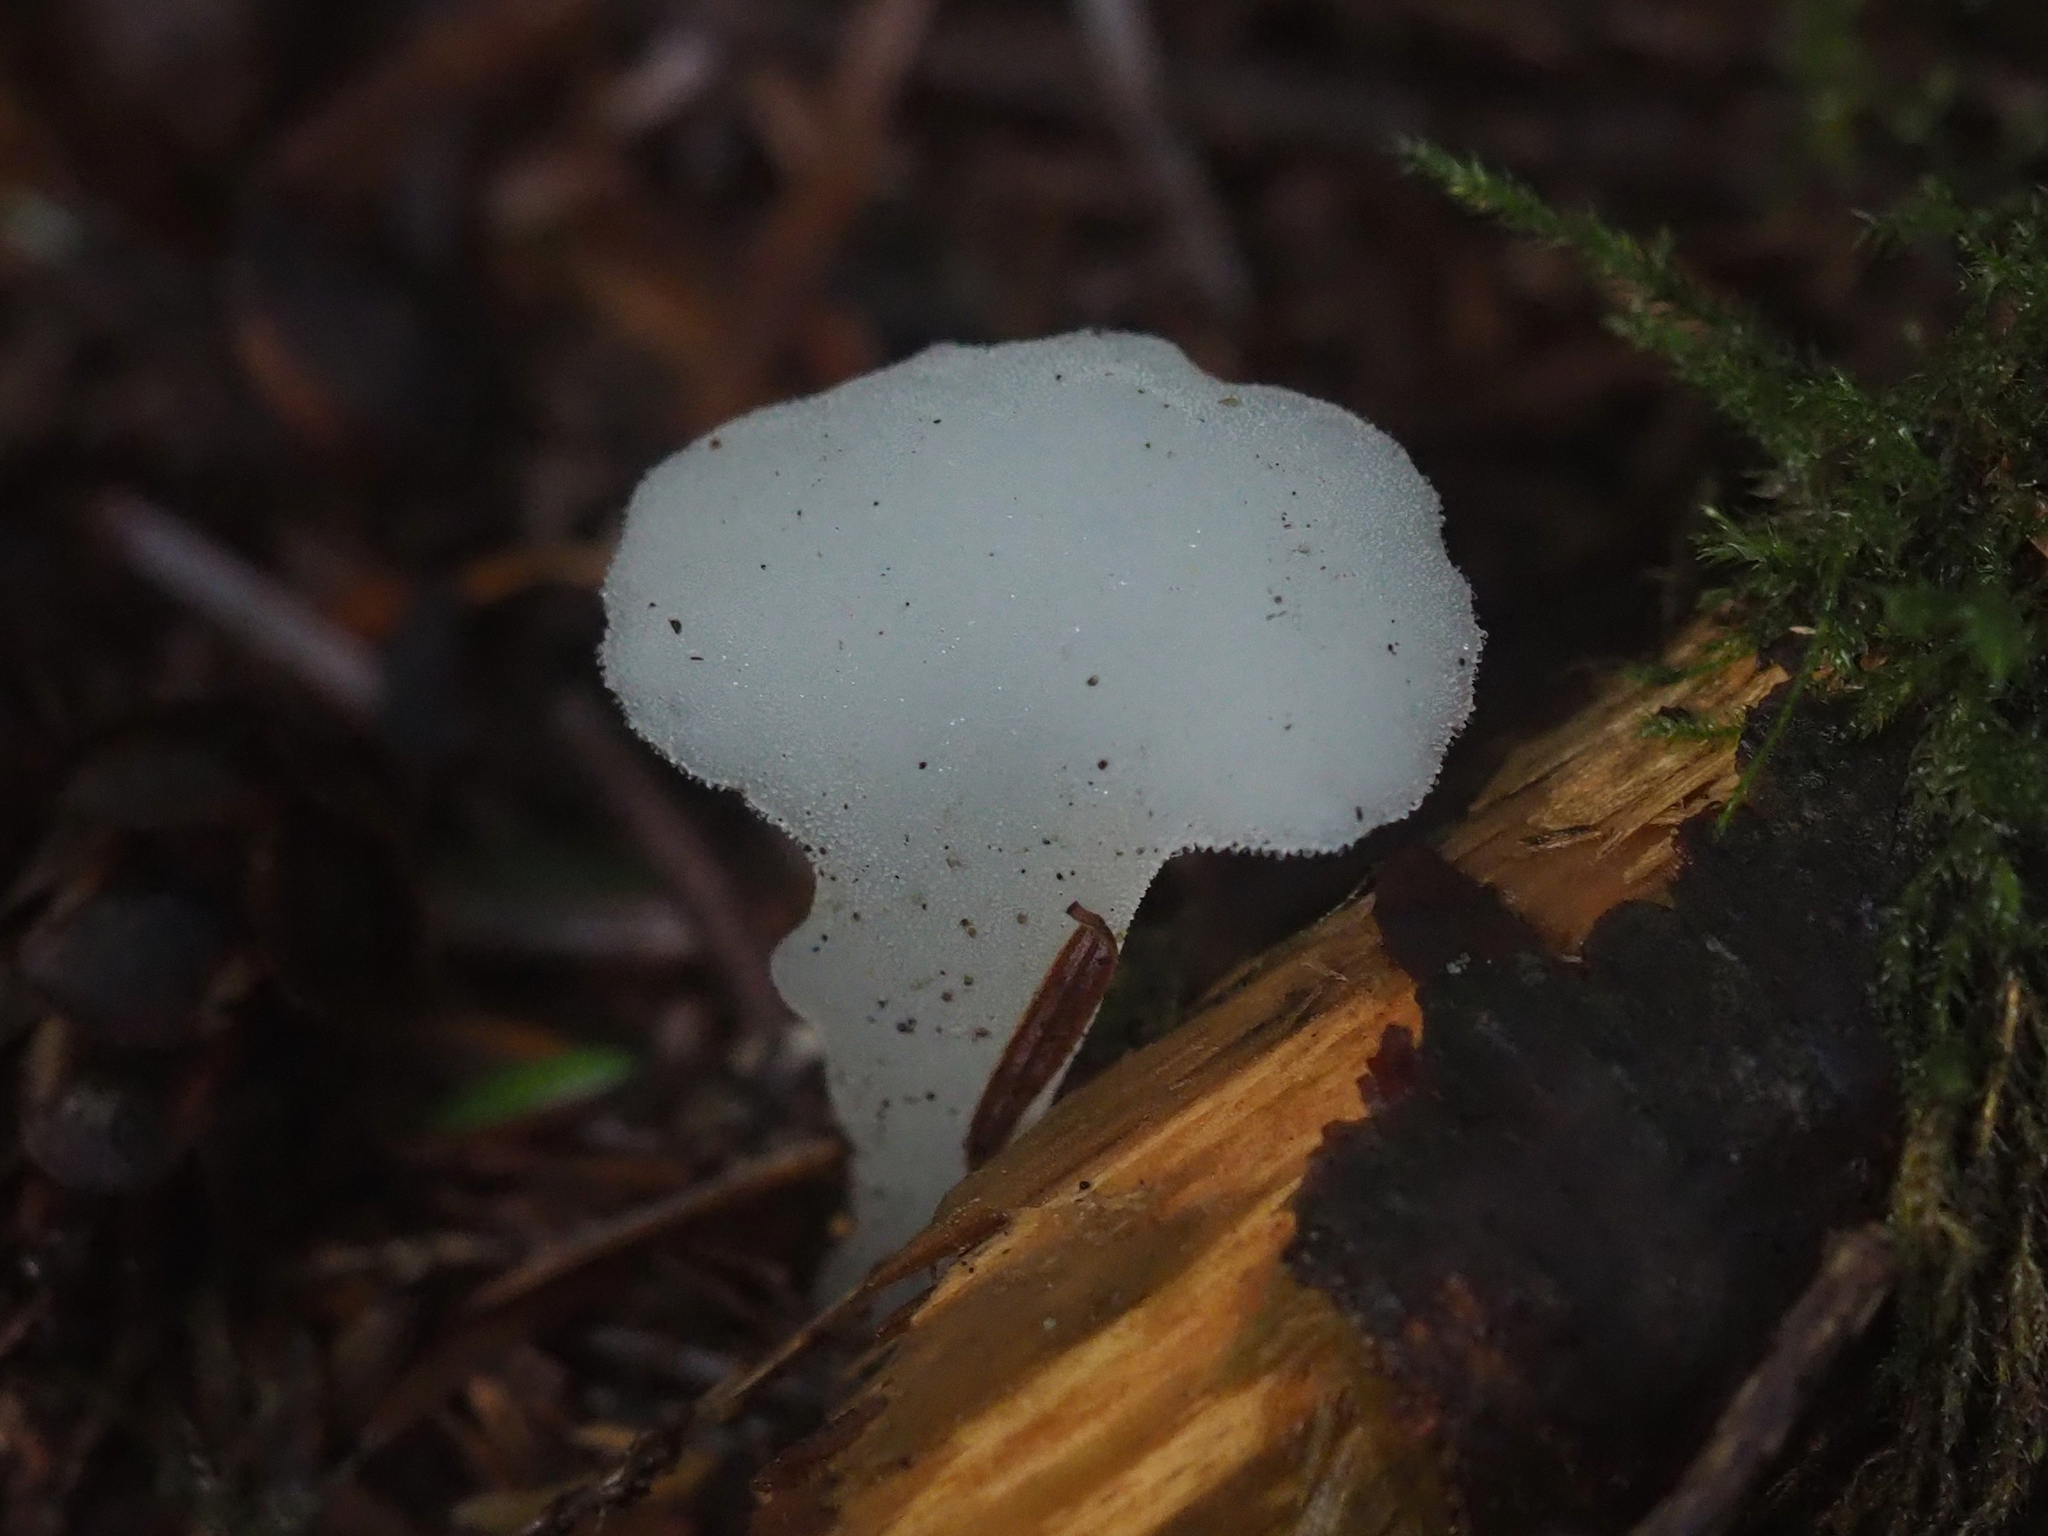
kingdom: Fungi
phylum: Basidiomycota
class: Agaricomycetes
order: Auriculariales
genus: Pseudohydnum
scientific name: Pseudohydnum gelatinosum
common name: Jelly tongue
